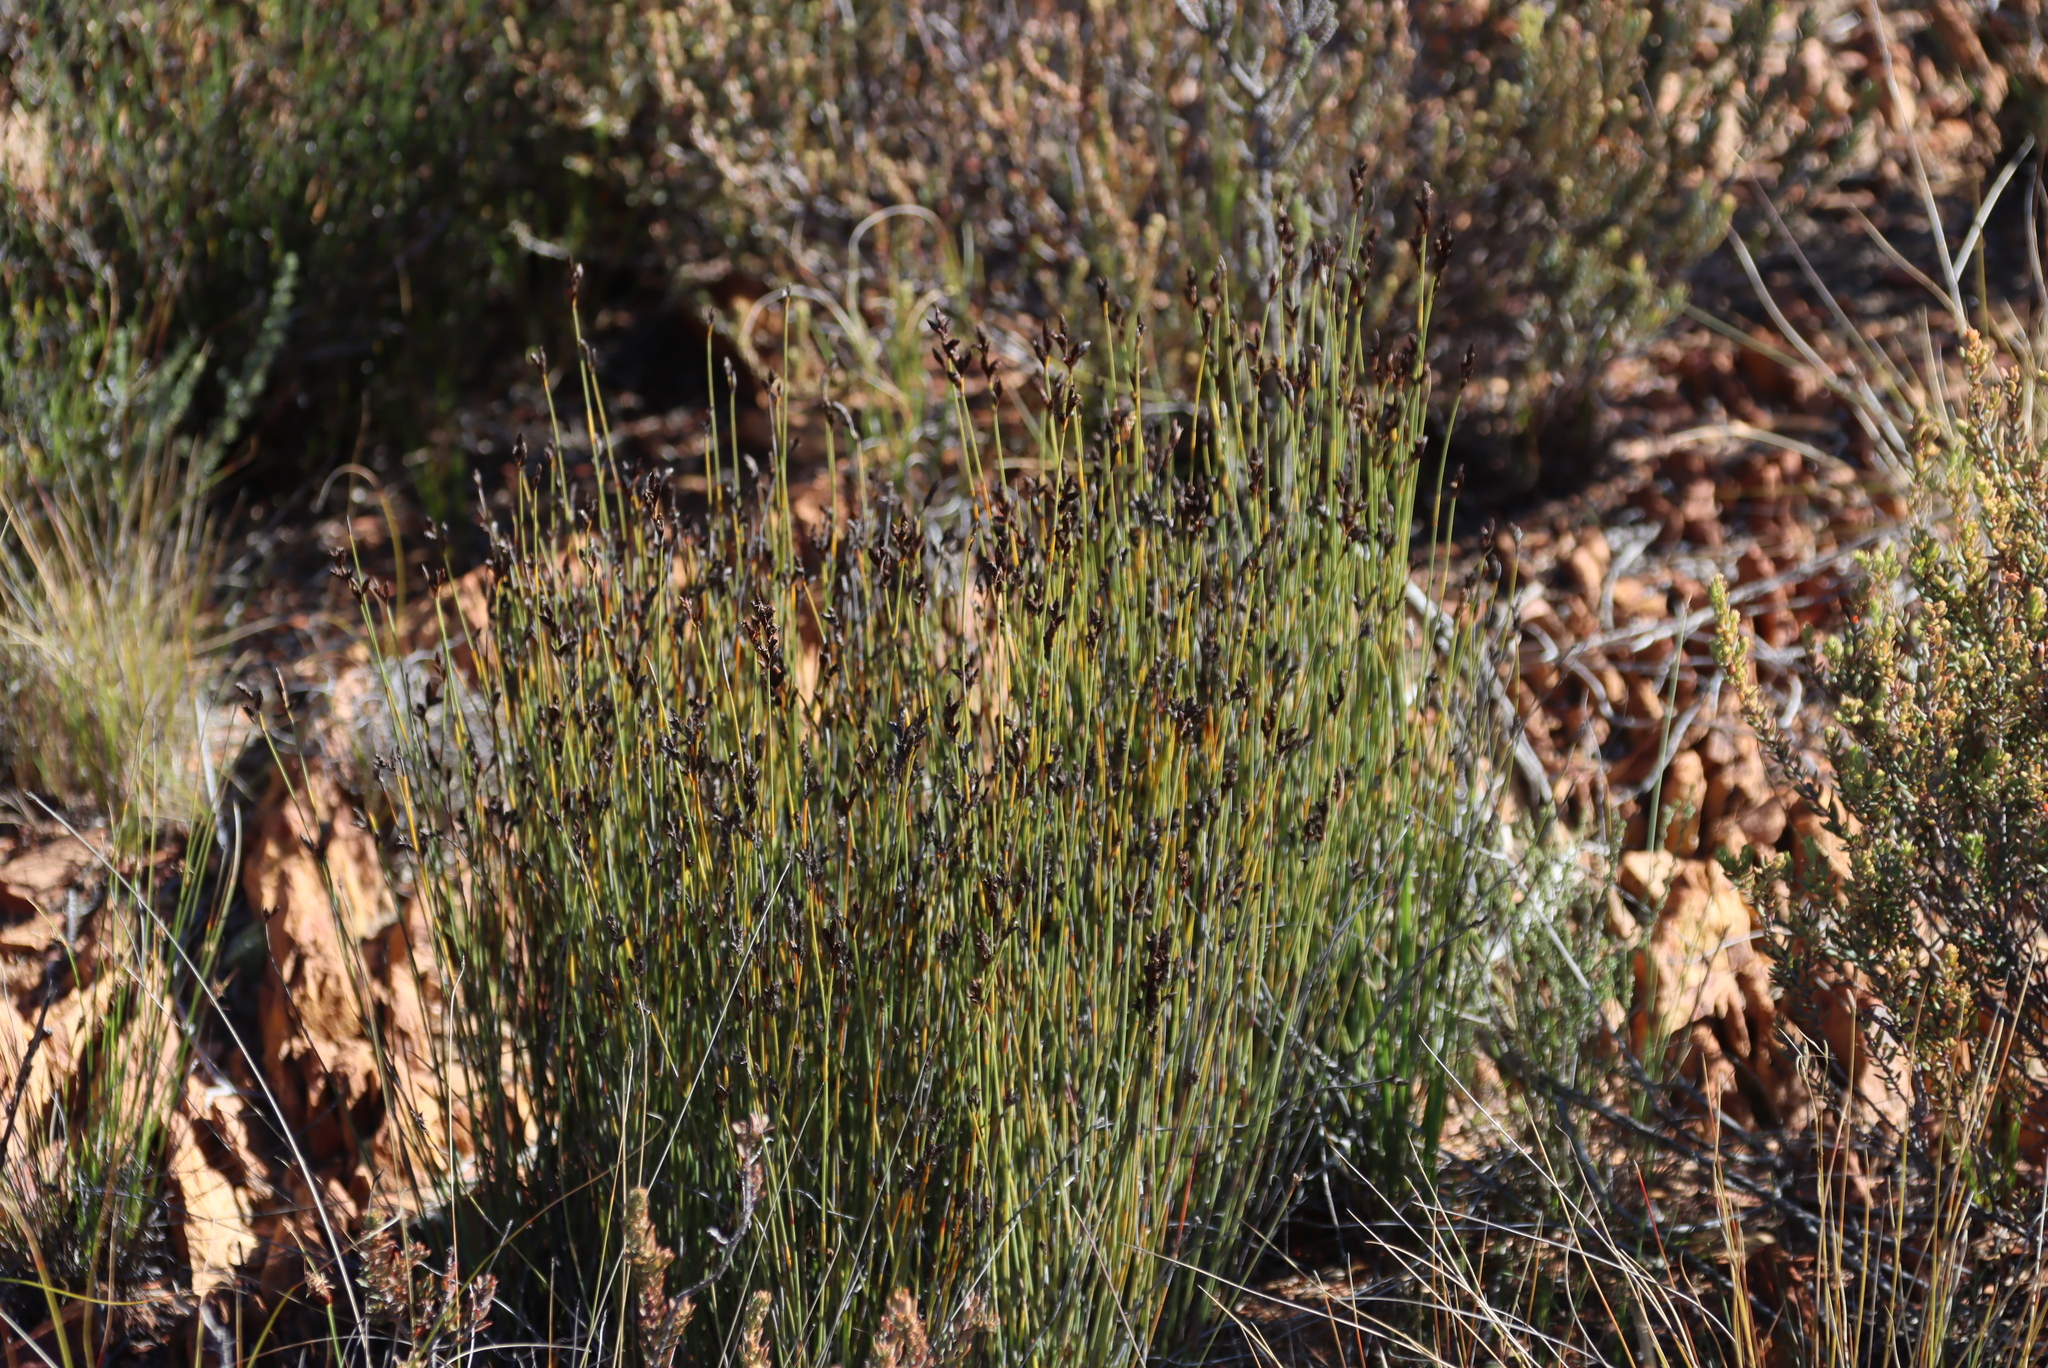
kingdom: Plantae
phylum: Tracheophyta
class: Liliopsida
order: Poales
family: Restionaceae
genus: Hypodiscus
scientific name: Hypodiscus striatus
